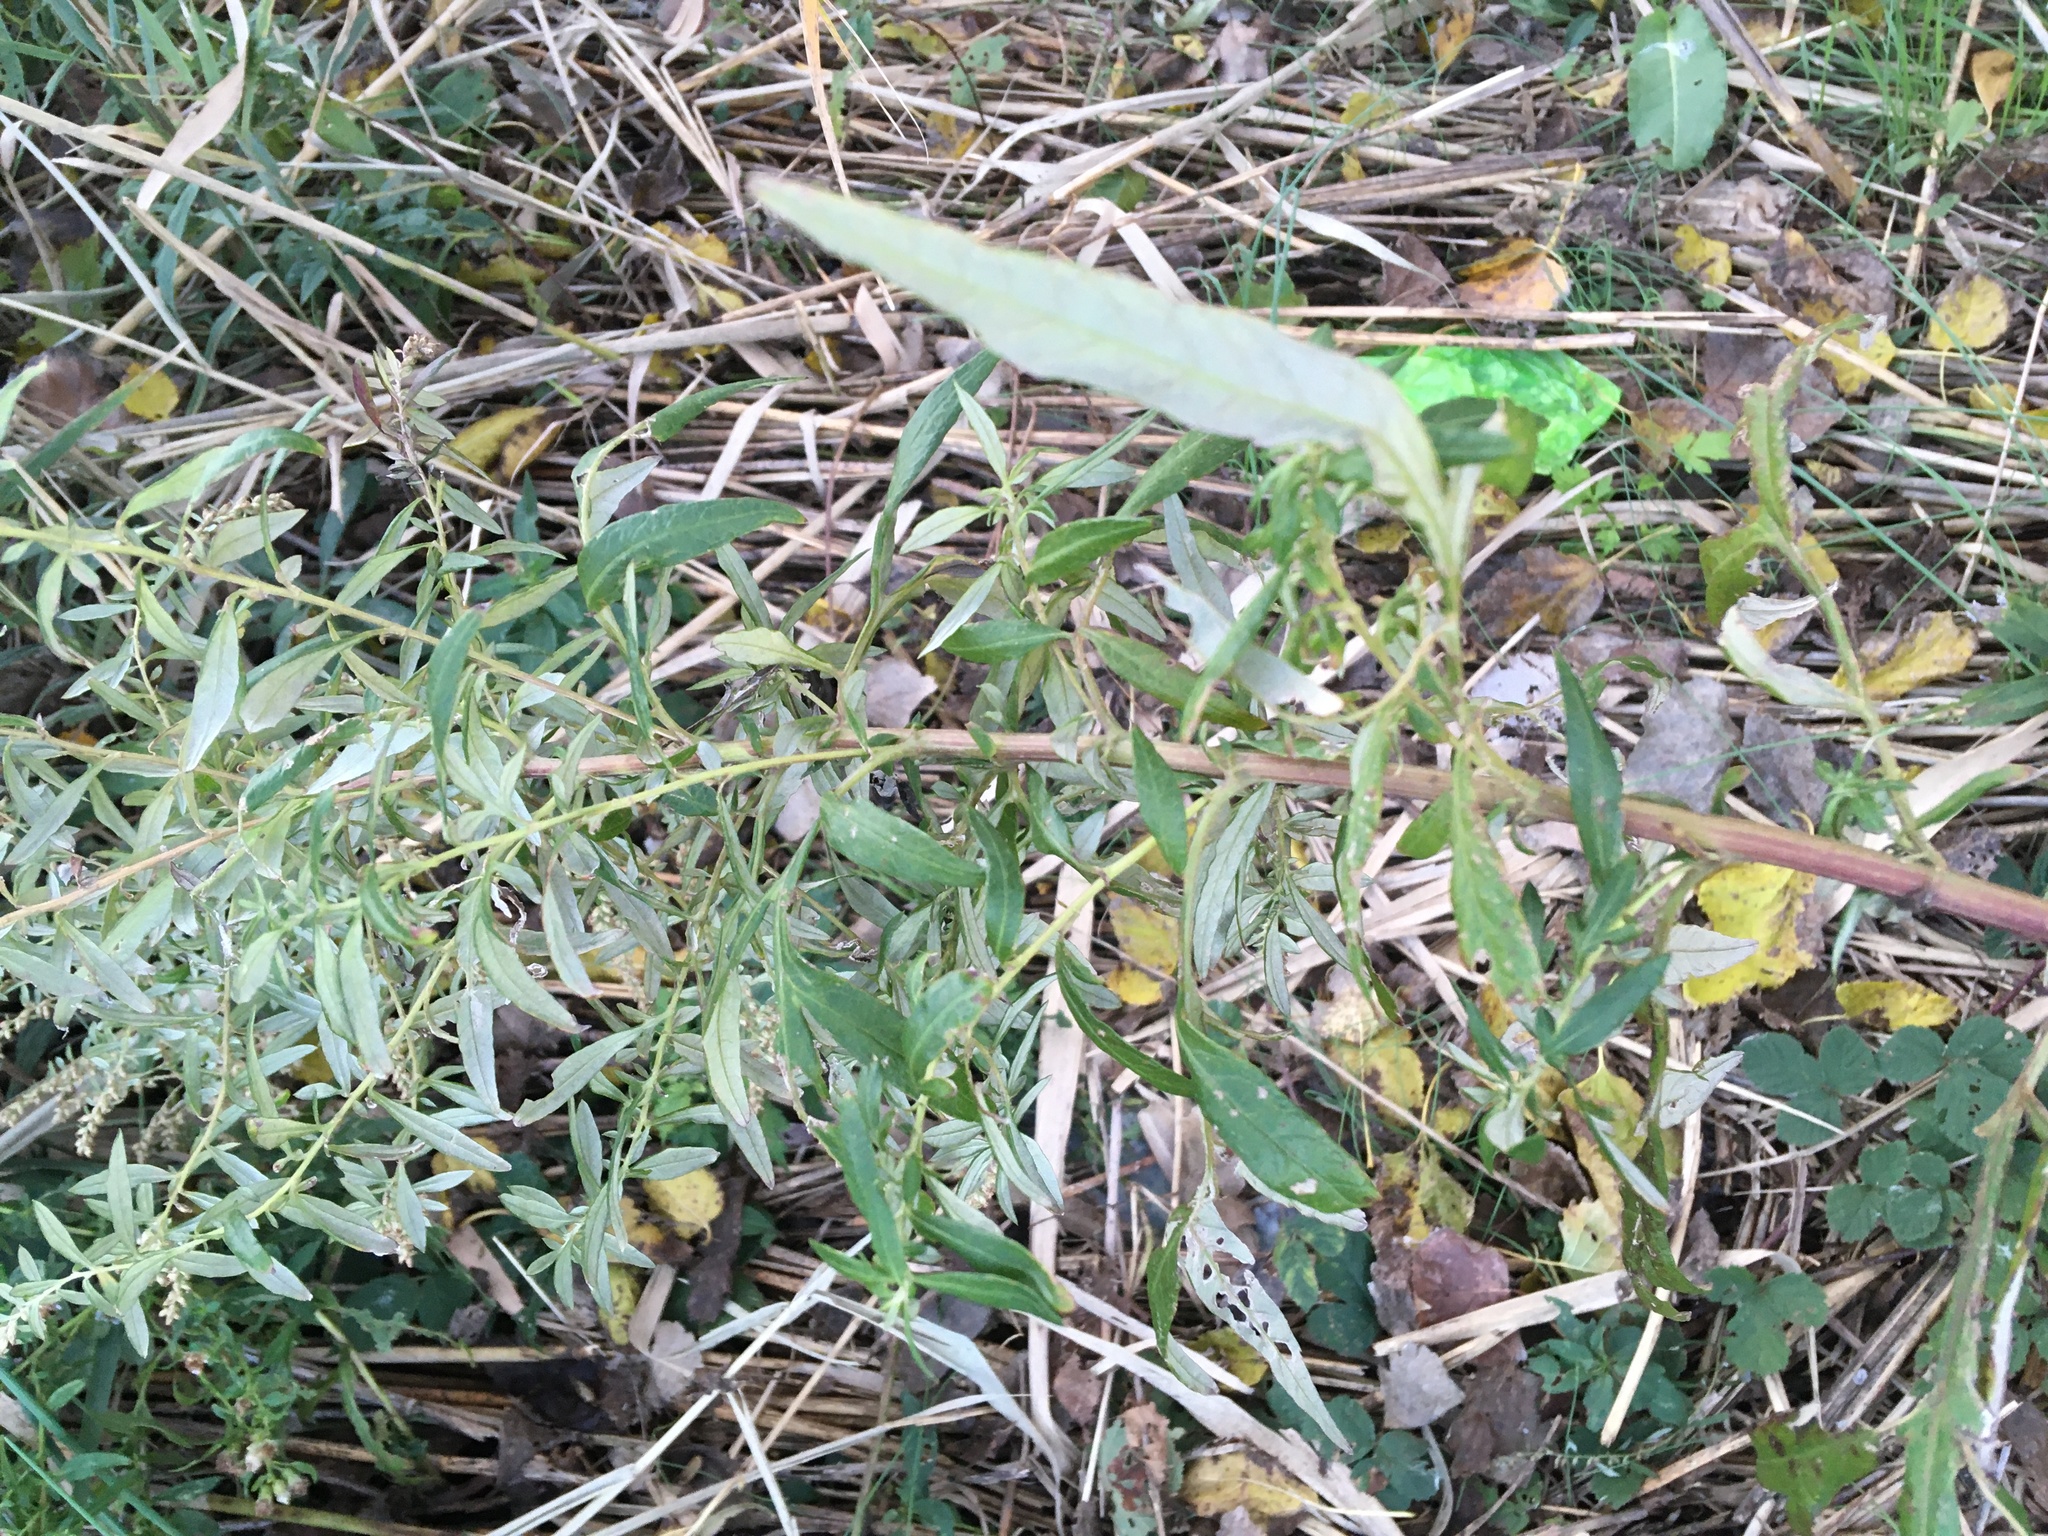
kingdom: Plantae
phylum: Tracheophyta
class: Magnoliopsida
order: Asterales
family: Asteraceae
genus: Artemisia
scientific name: Artemisia vulgaris
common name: Mugwort
